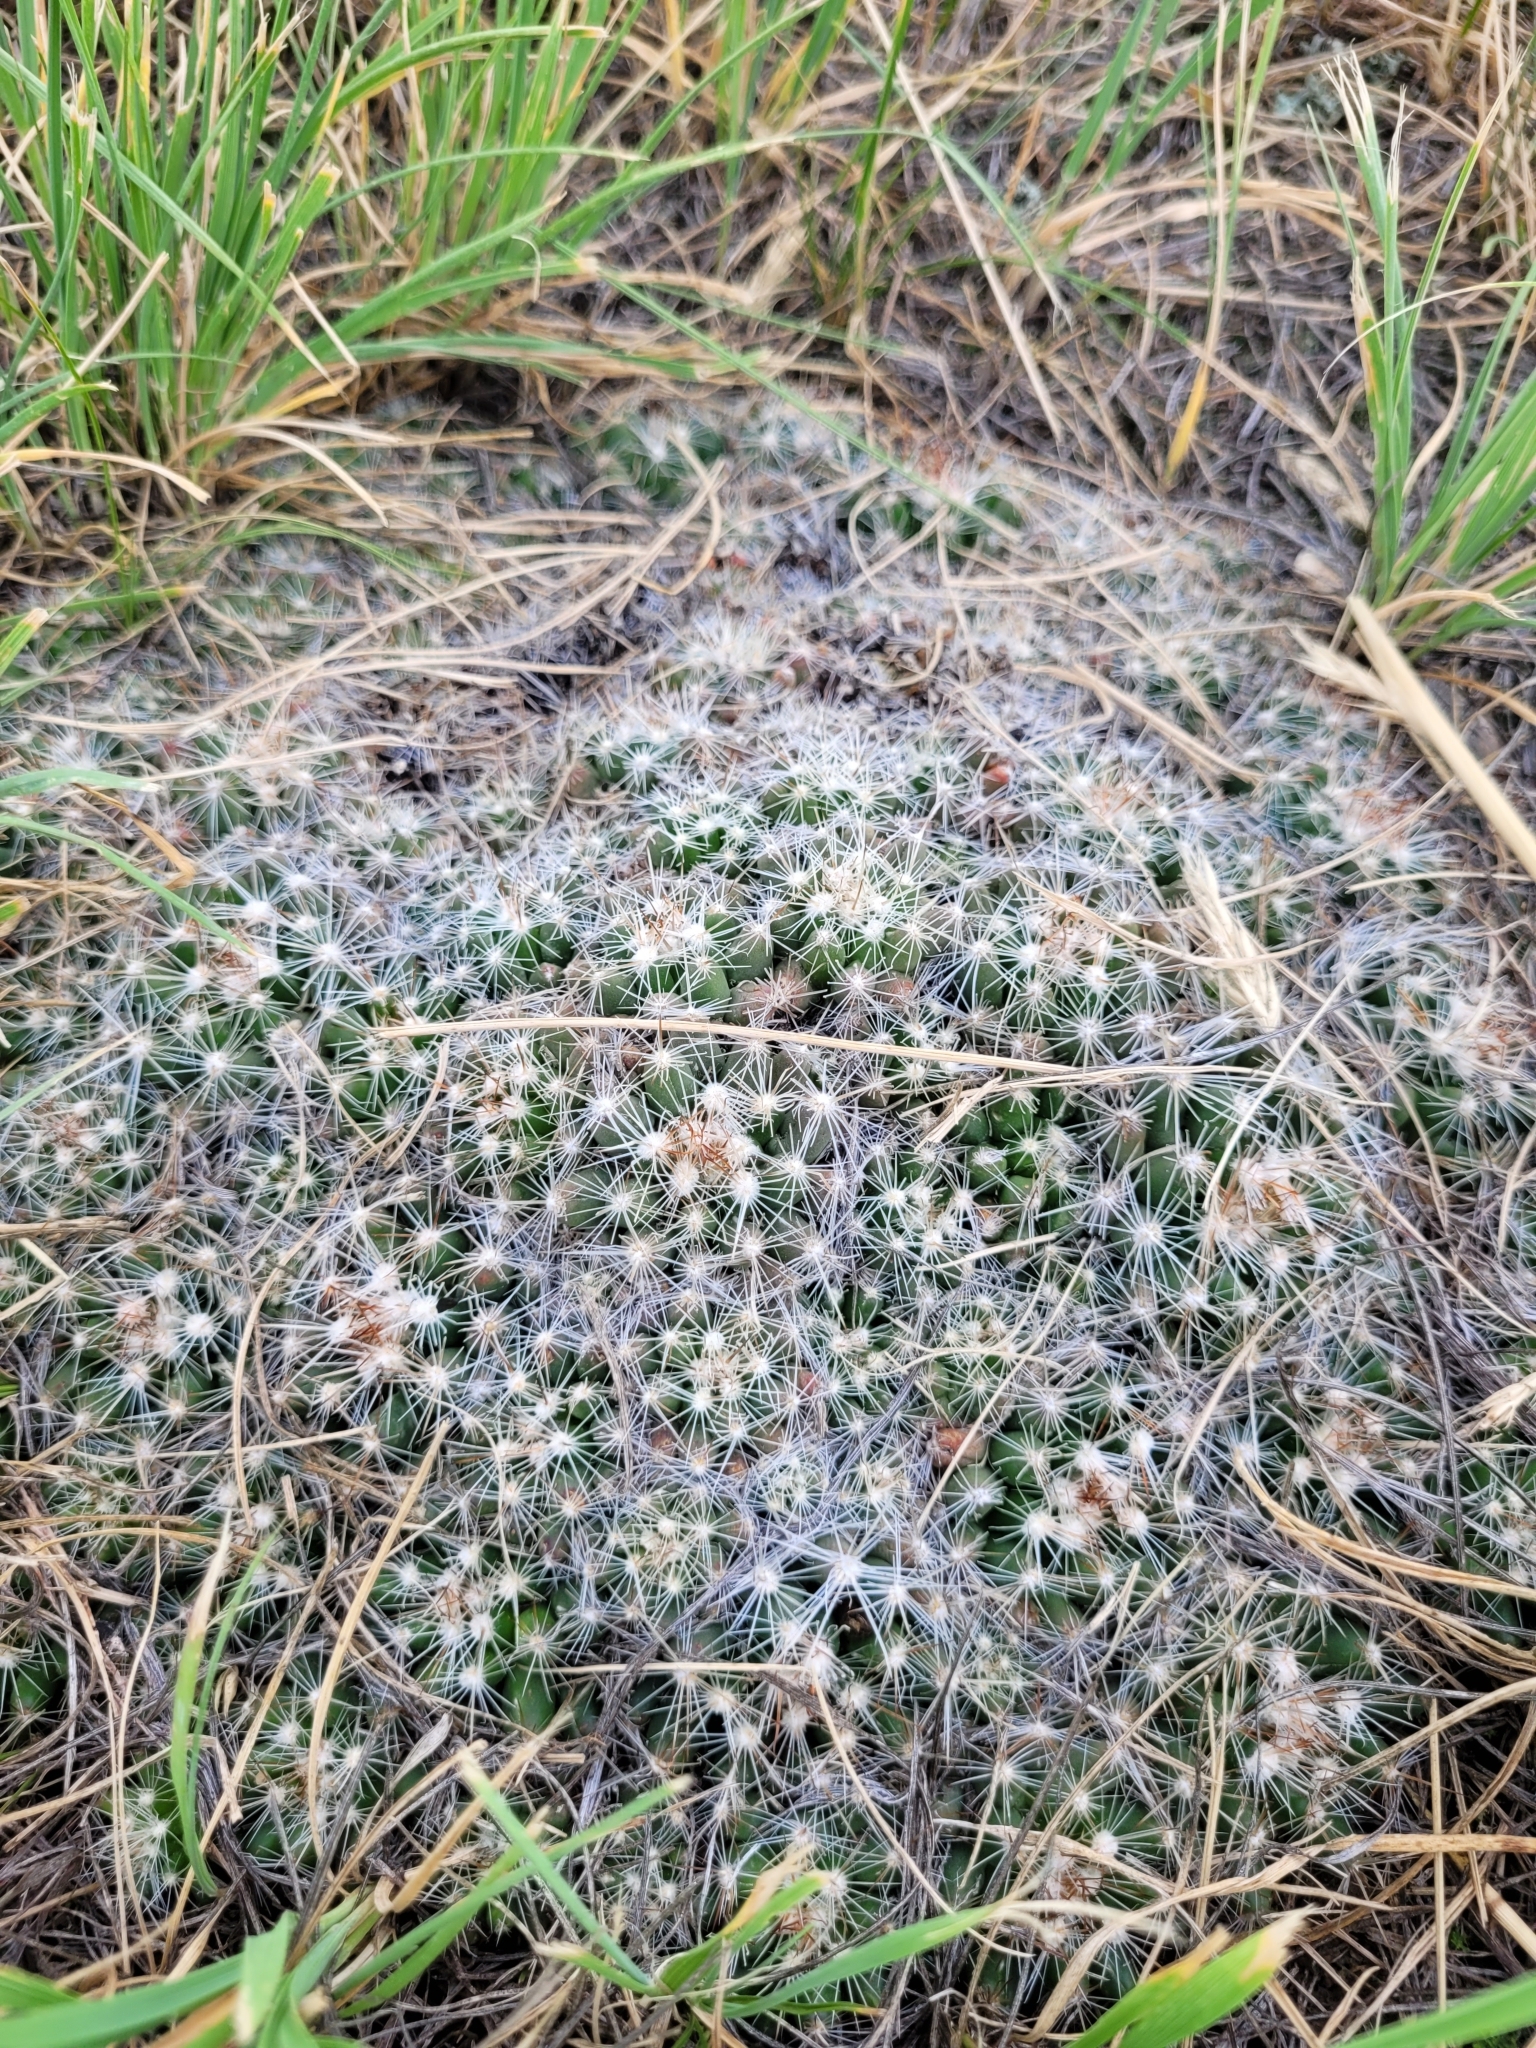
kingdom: Plantae
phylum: Tracheophyta
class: Magnoliopsida
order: Caryophyllales
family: Cactaceae
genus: Pelecyphora
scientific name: Pelecyphora vivipara
